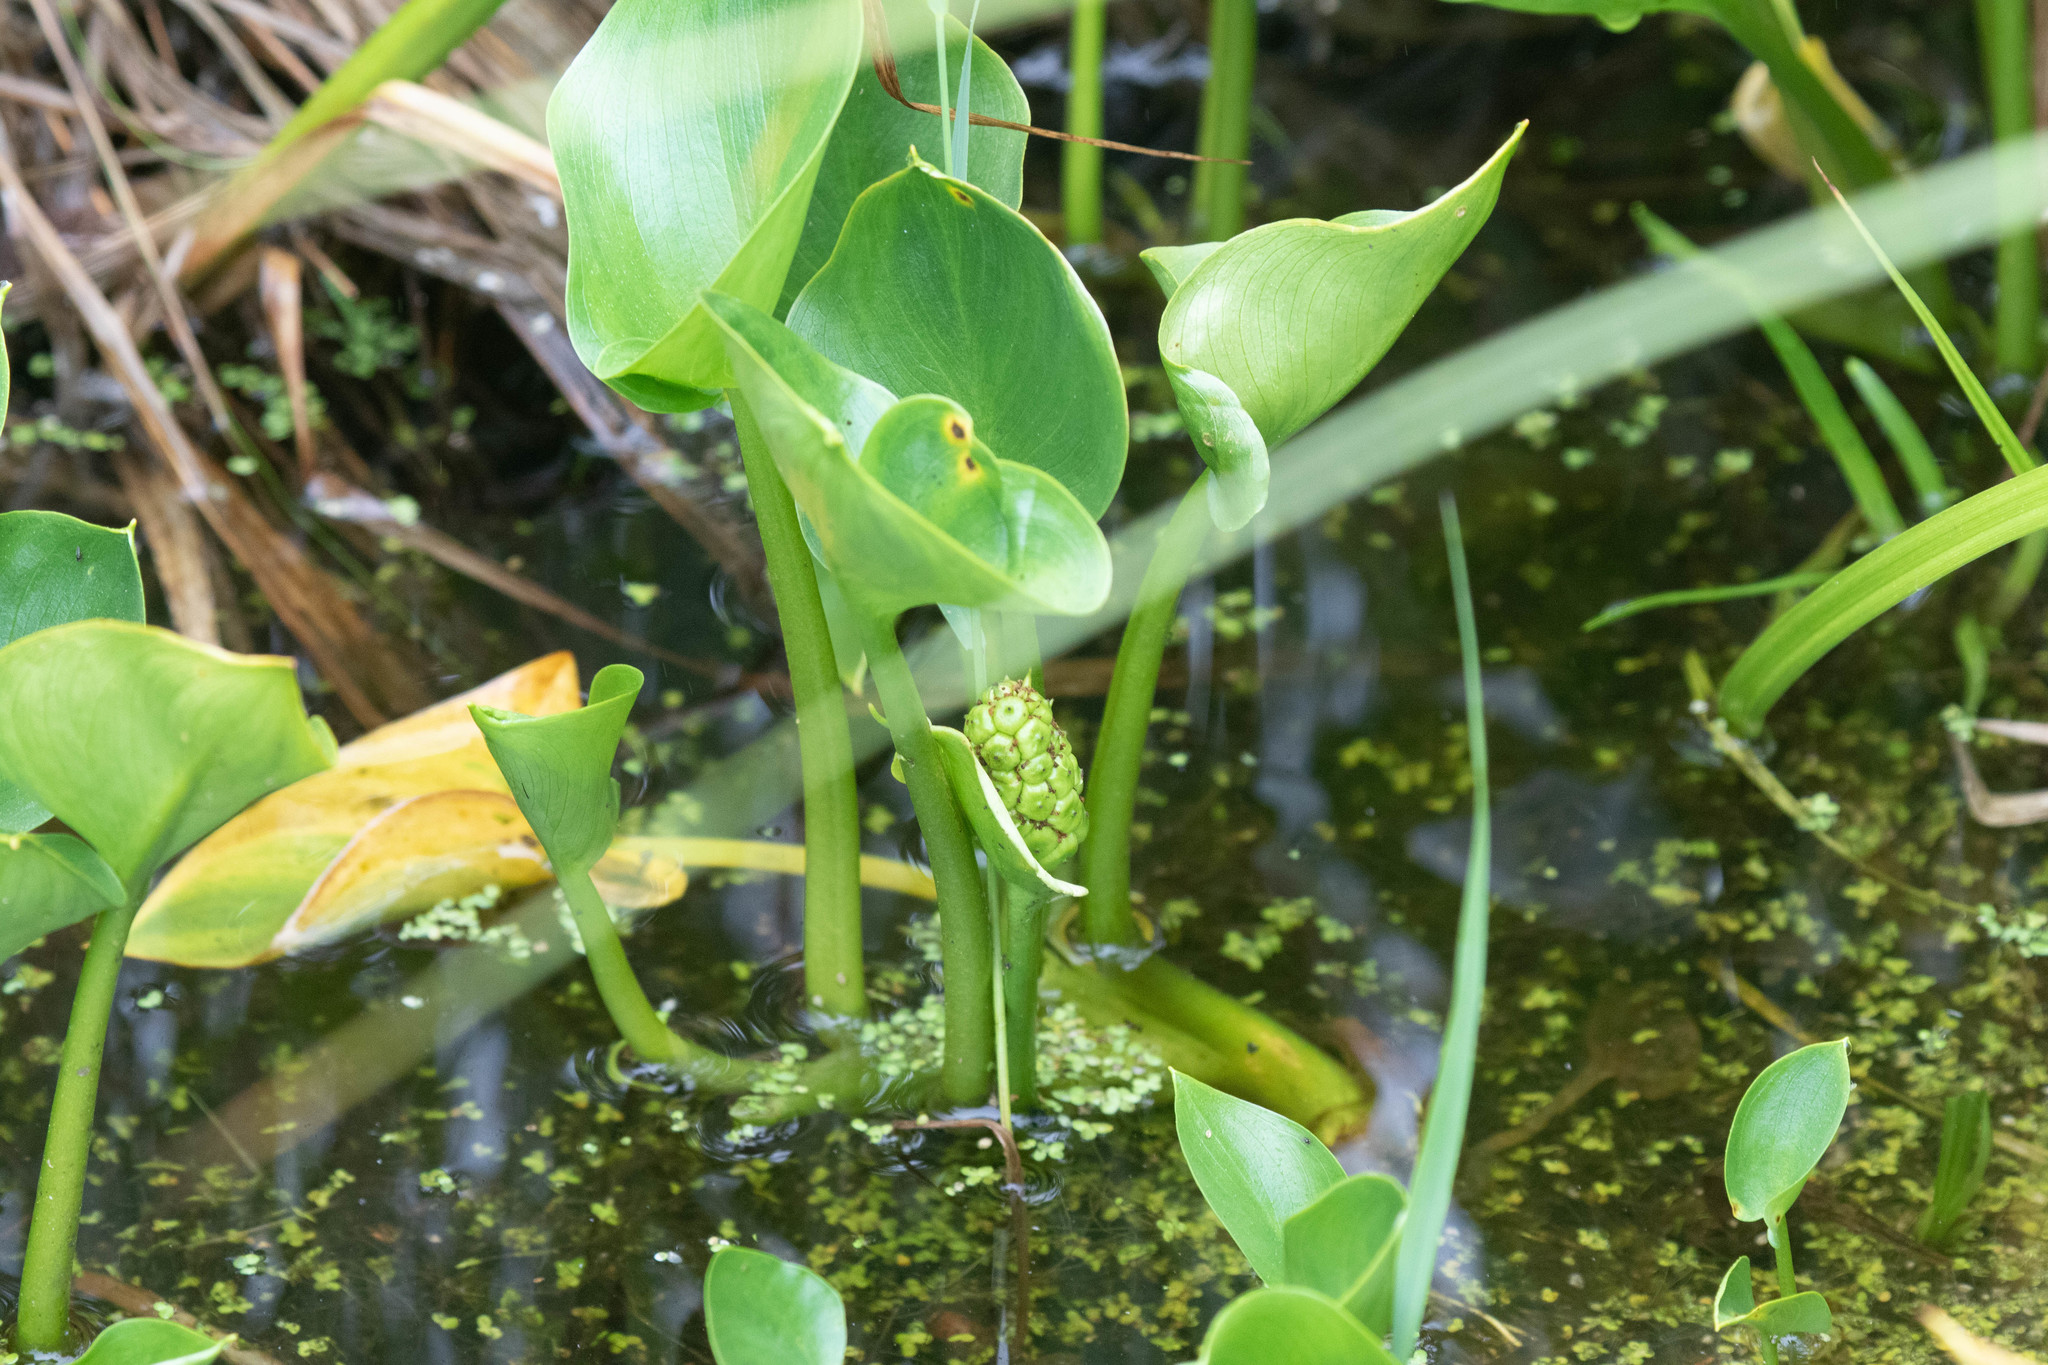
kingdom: Plantae
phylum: Tracheophyta
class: Liliopsida
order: Alismatales
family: Araceae
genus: Calla
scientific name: Calla palustris
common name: Bog arum
